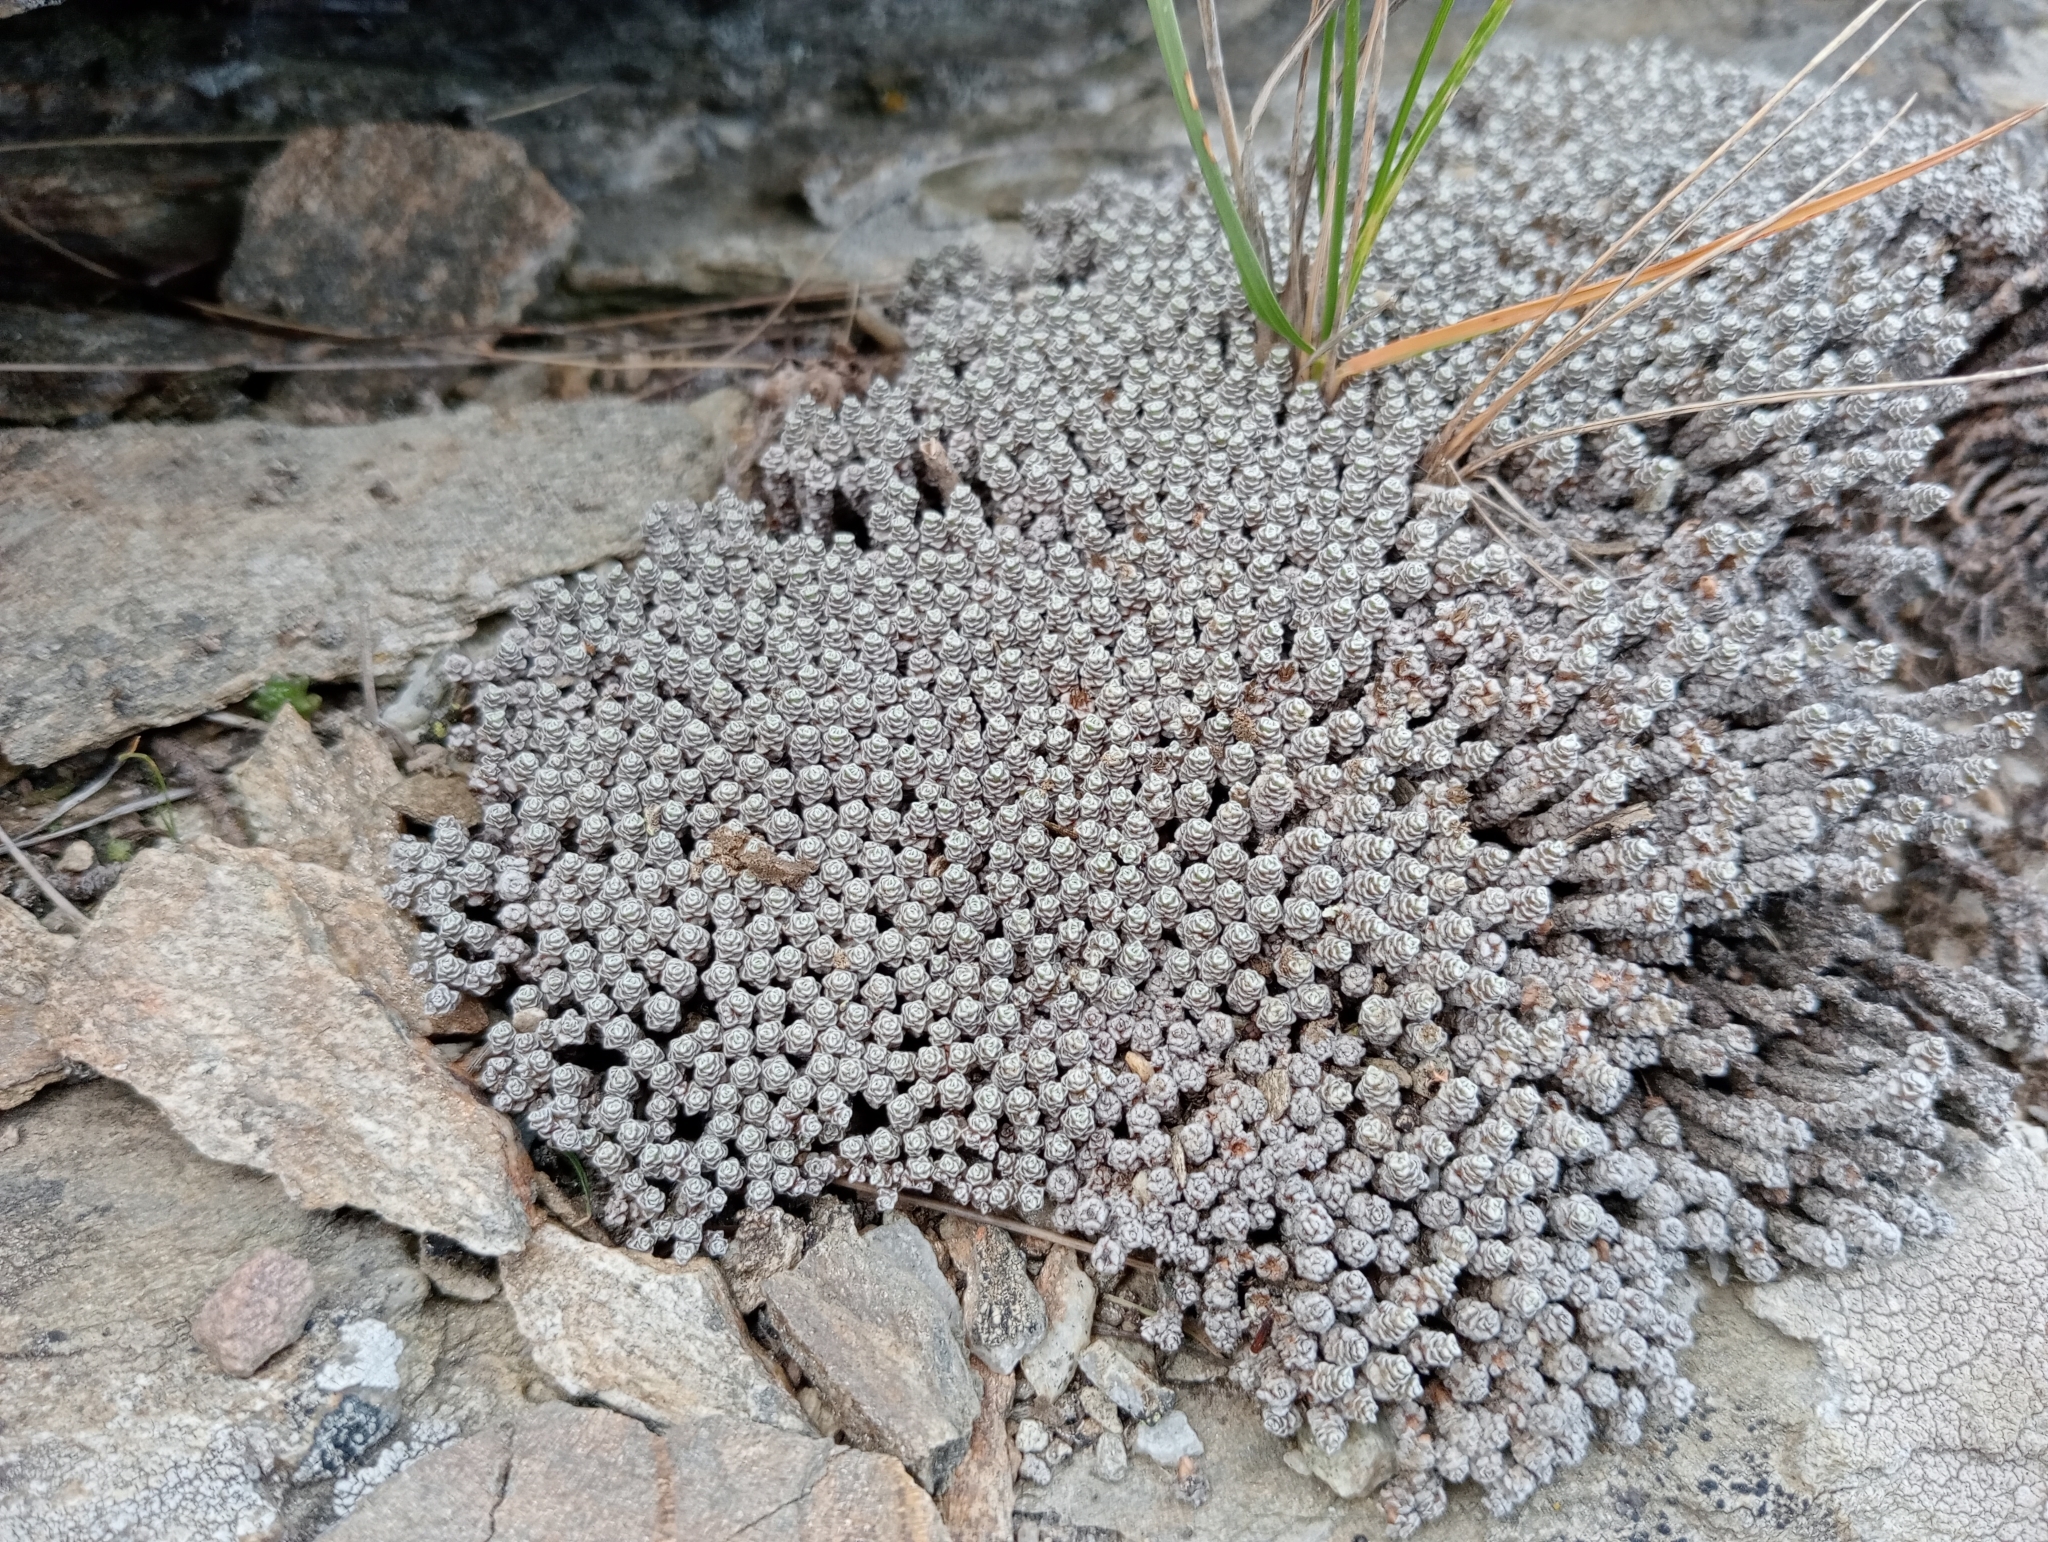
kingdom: Plantae
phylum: Tracheophyta
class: Magnoliopsida
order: Asterales
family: Asteraceae
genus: Raoulia
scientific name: Raoulia australis
